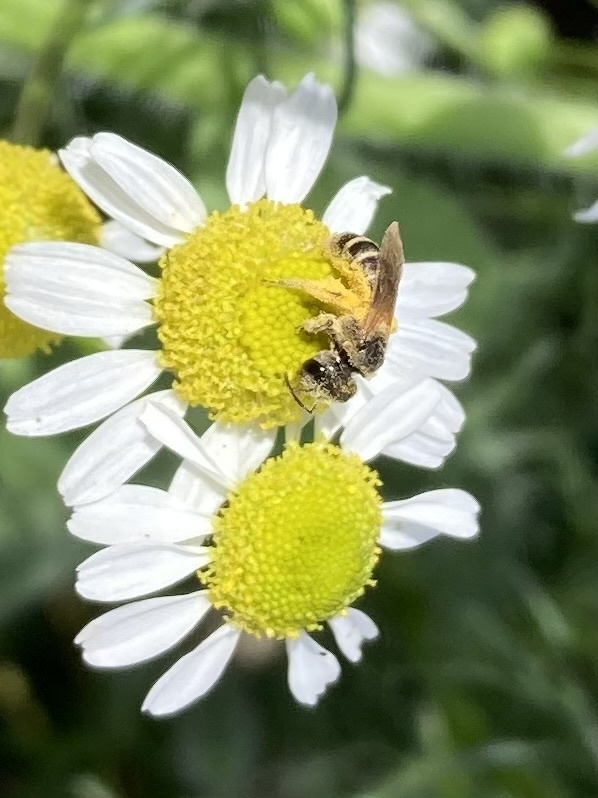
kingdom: Animalia
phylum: Arthropoda
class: Insecta
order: Hymenoptera
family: Halictidae
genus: Halictus
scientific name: Halictus ligatus
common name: Ligated furrow bee
